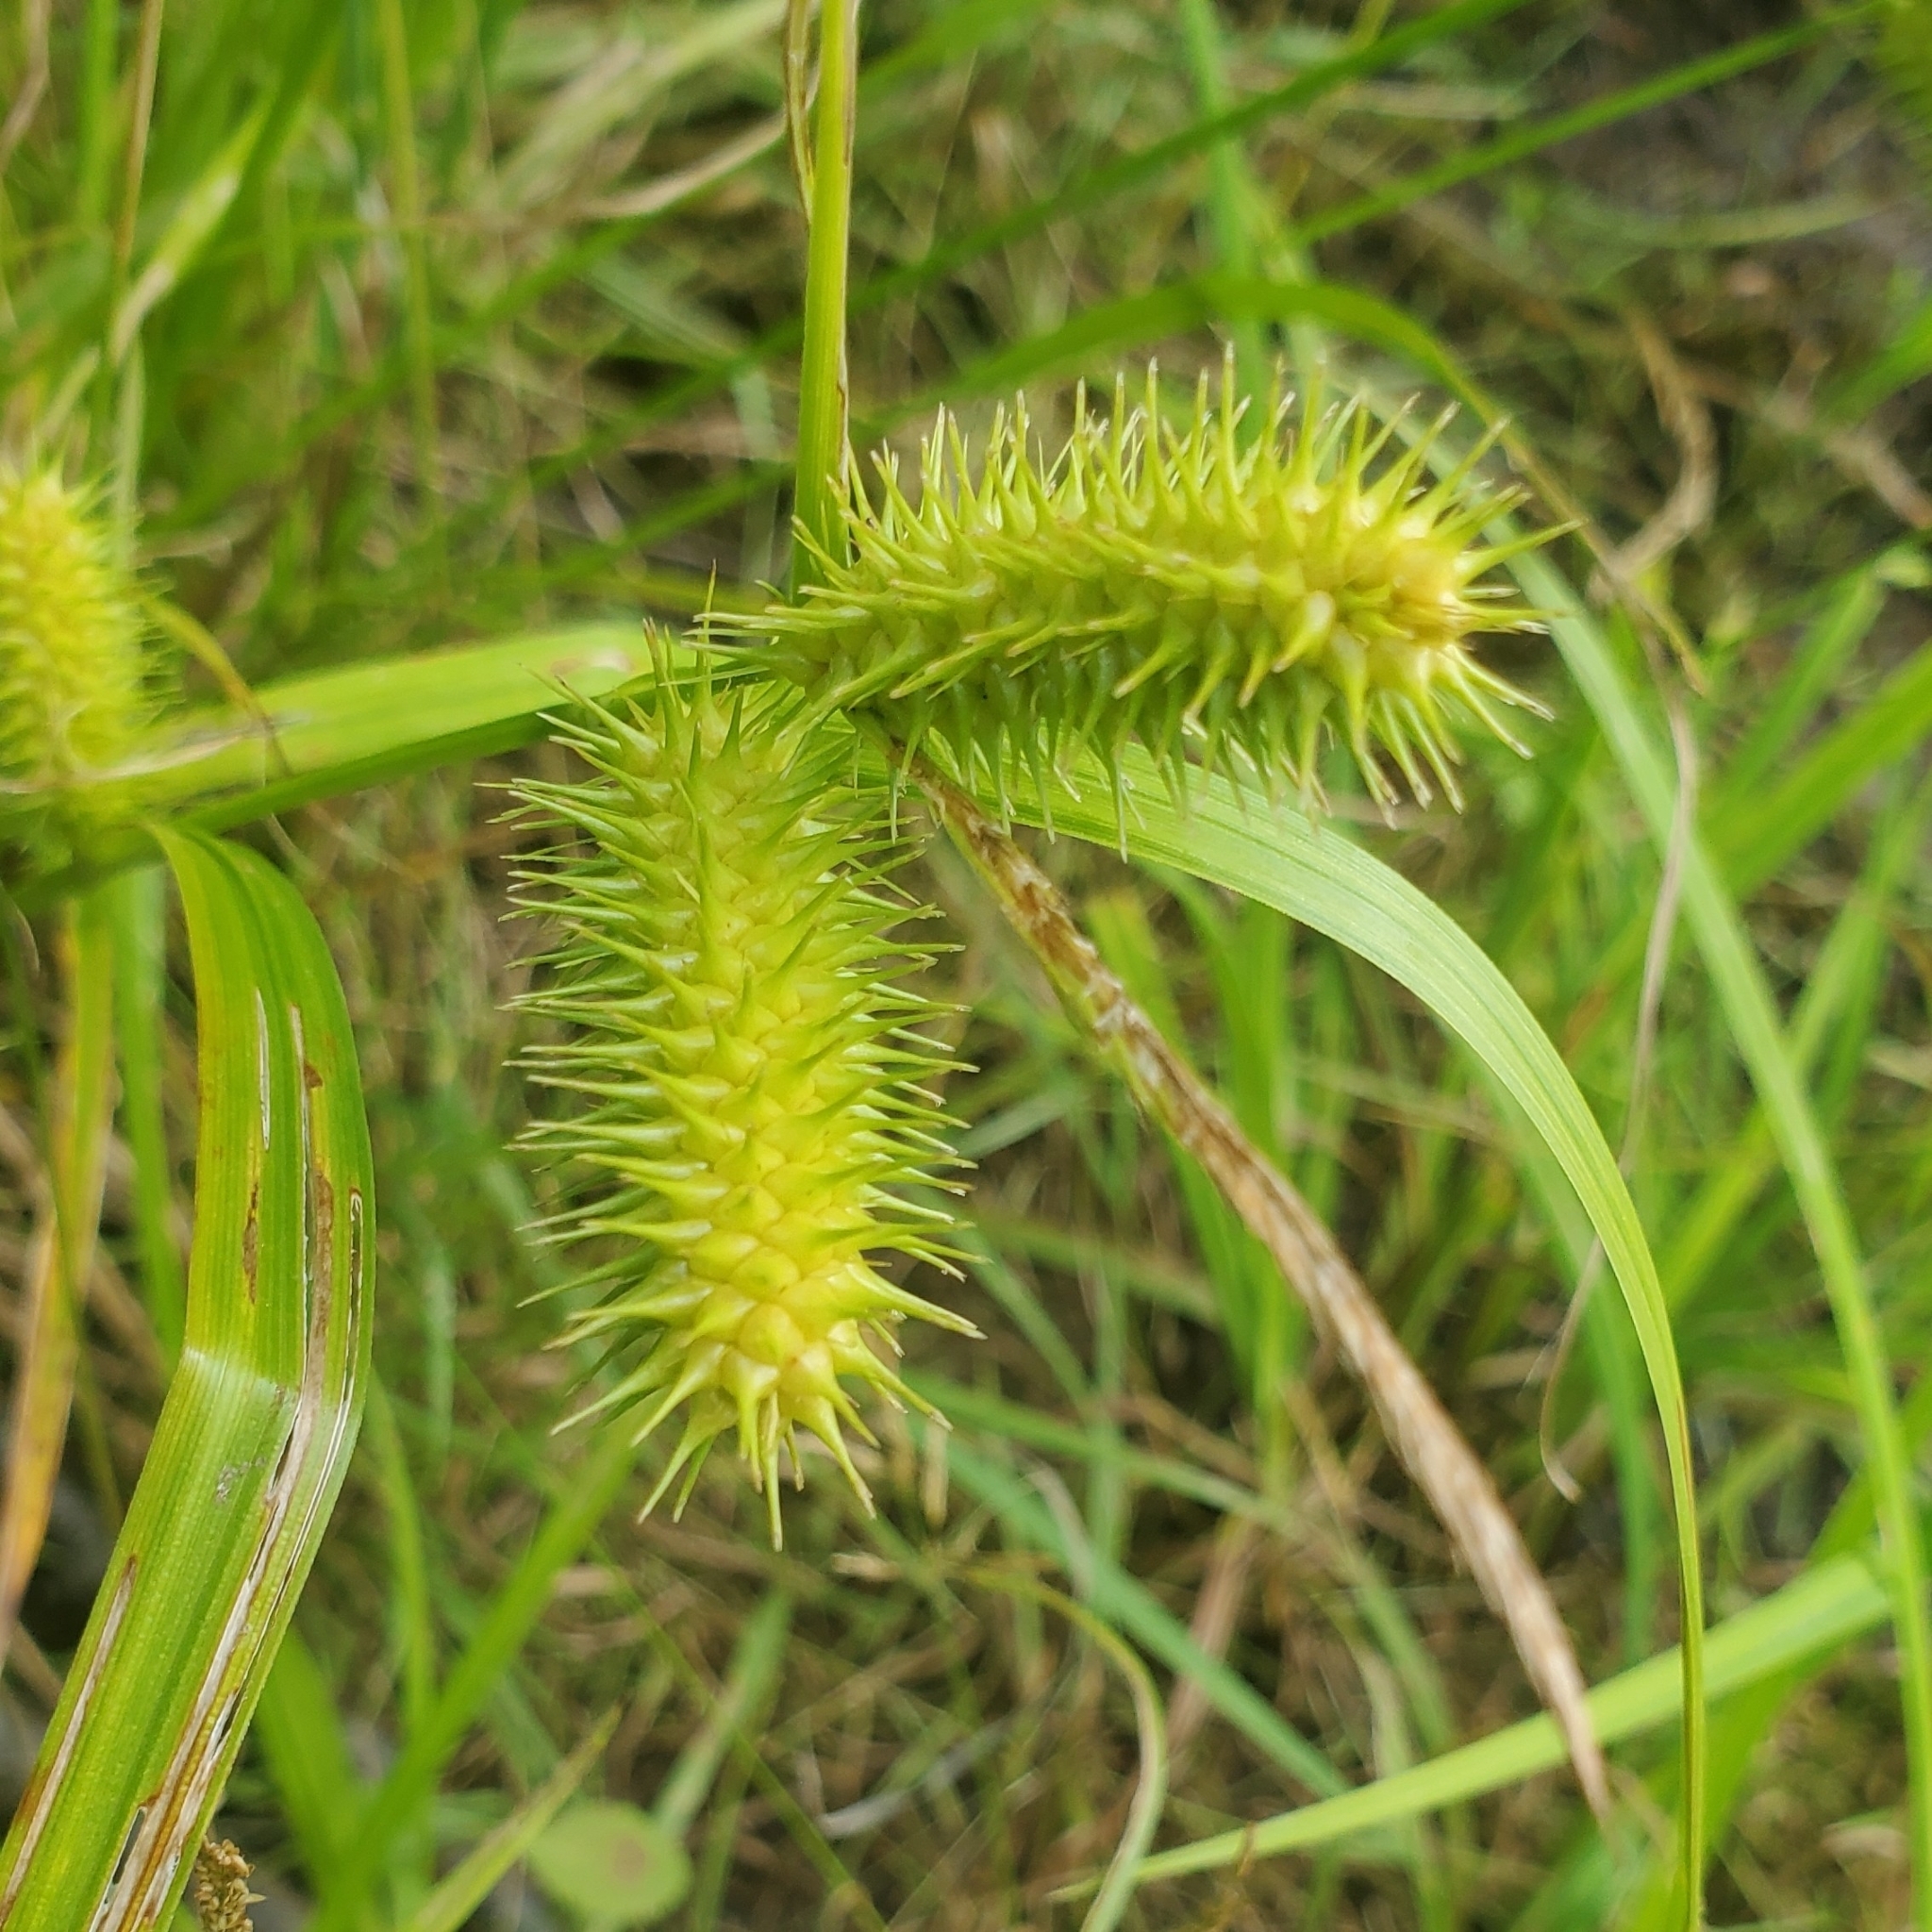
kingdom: Plantae
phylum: Tracheophyta
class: Liliopsida
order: Poales
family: Cyperaceae
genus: Carex
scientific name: Carex lurida
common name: Sallow sedge
